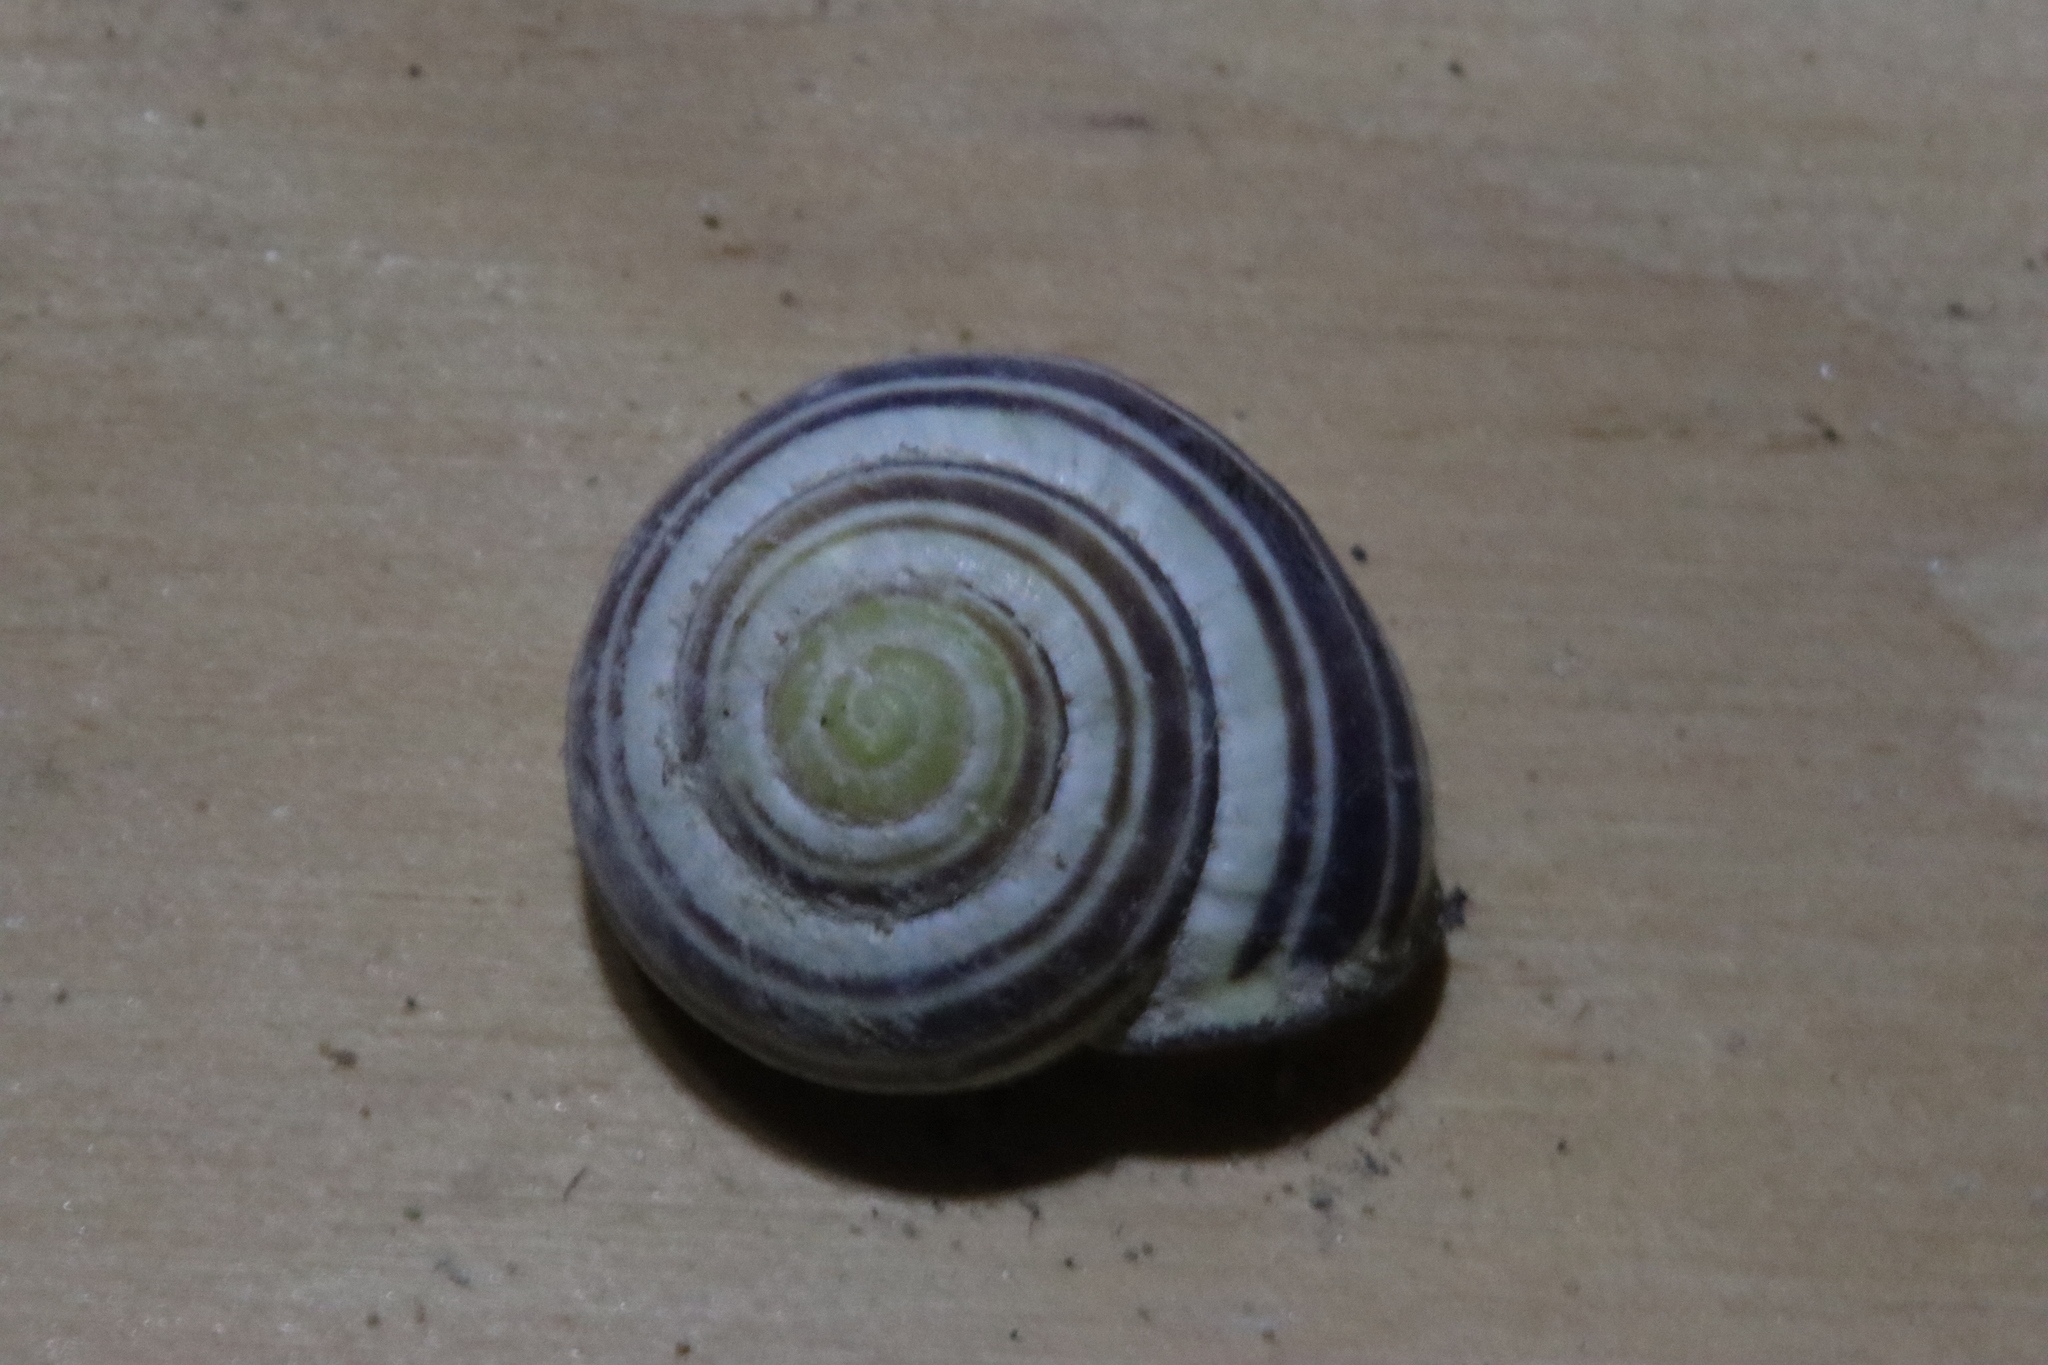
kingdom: Animalia
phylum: Mollusca
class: Gastropoda
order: Stylommatophora
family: Helicidae
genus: Cepaea
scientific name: Cepaea nemoralis
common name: Grovesnail
